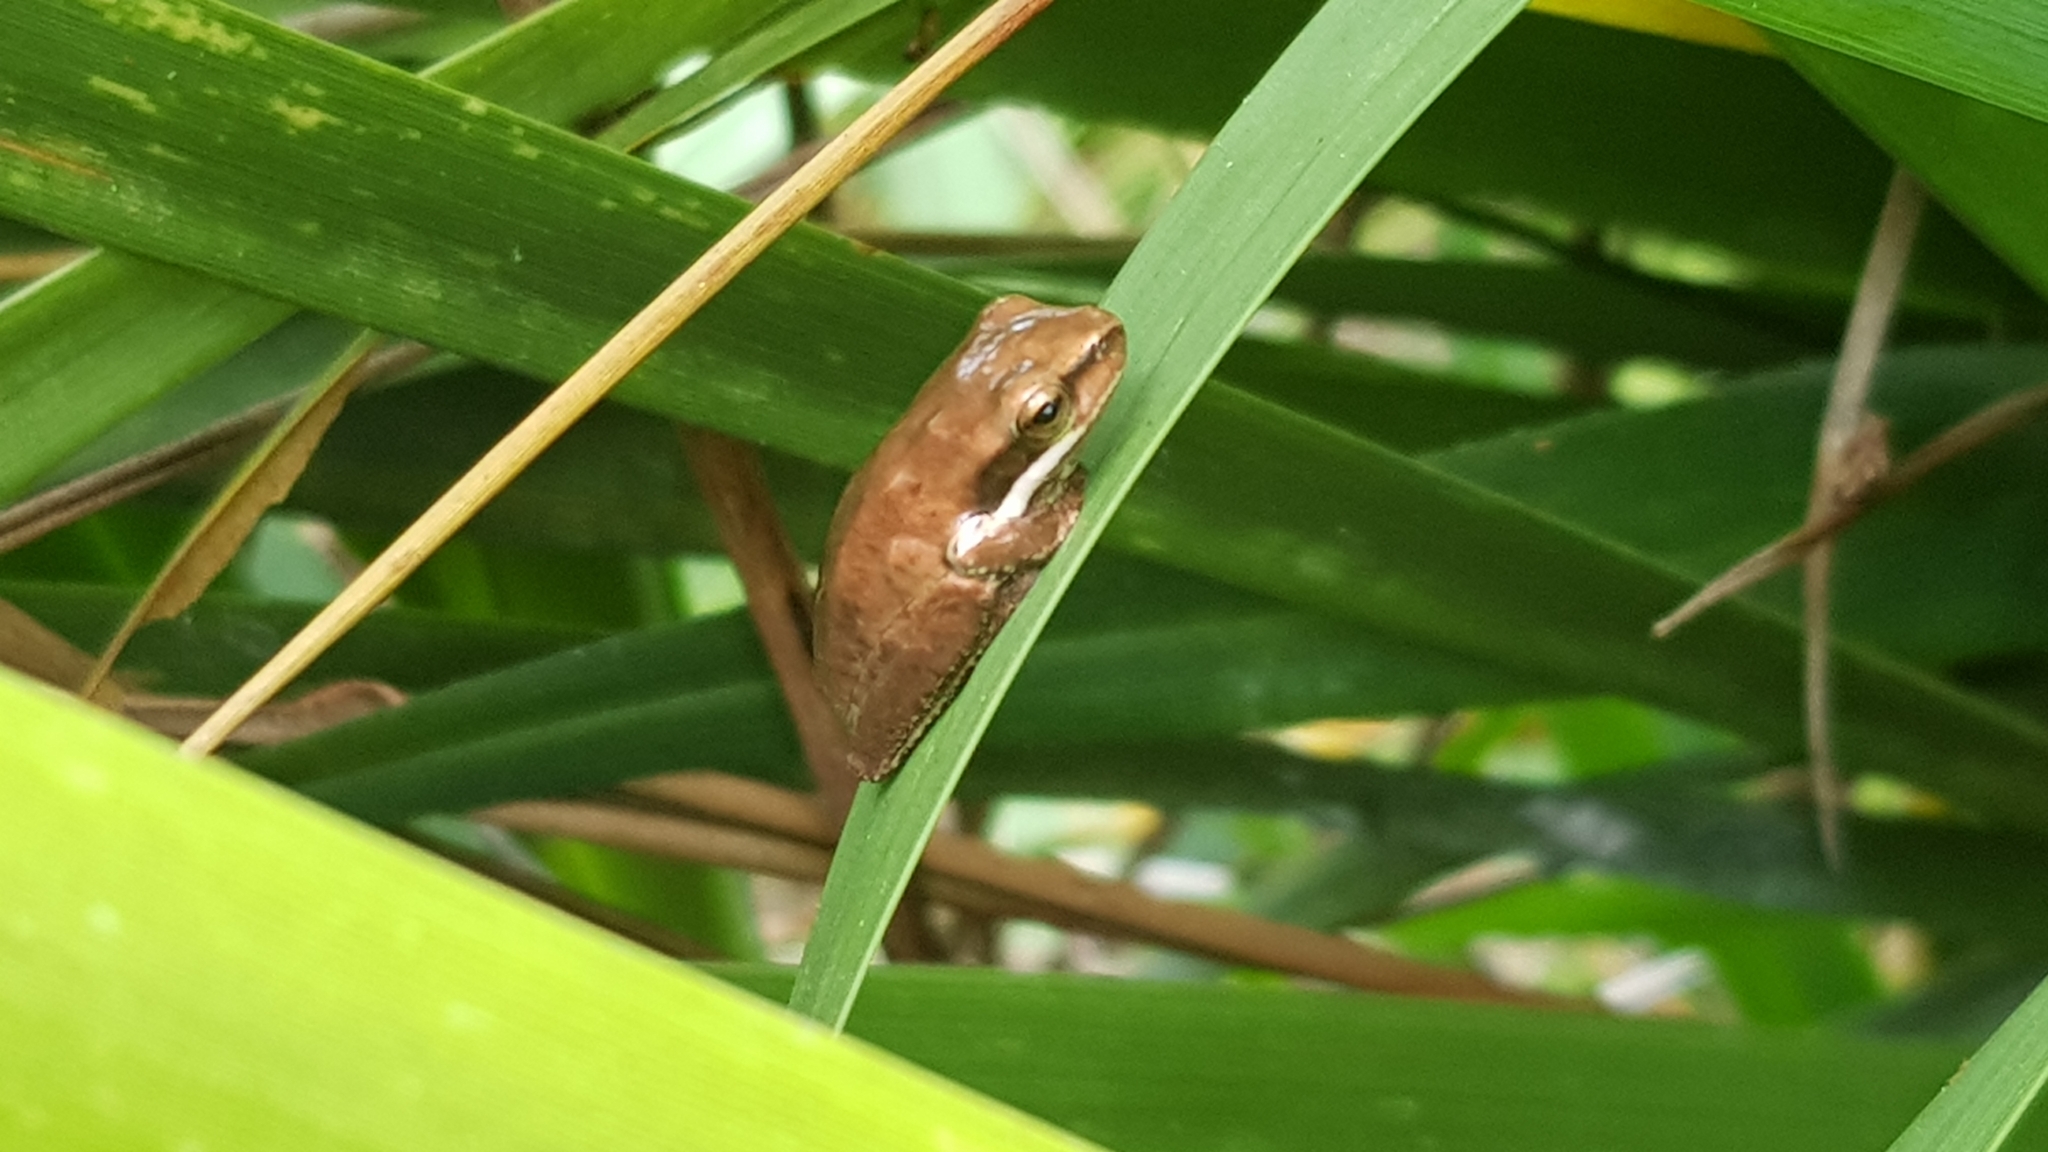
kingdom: Animalia
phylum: Chordata
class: Amphibia
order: Anura
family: Pelodryadidae
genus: Litoria
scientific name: Litoria fallax
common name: Eastern dwarf treefrog
